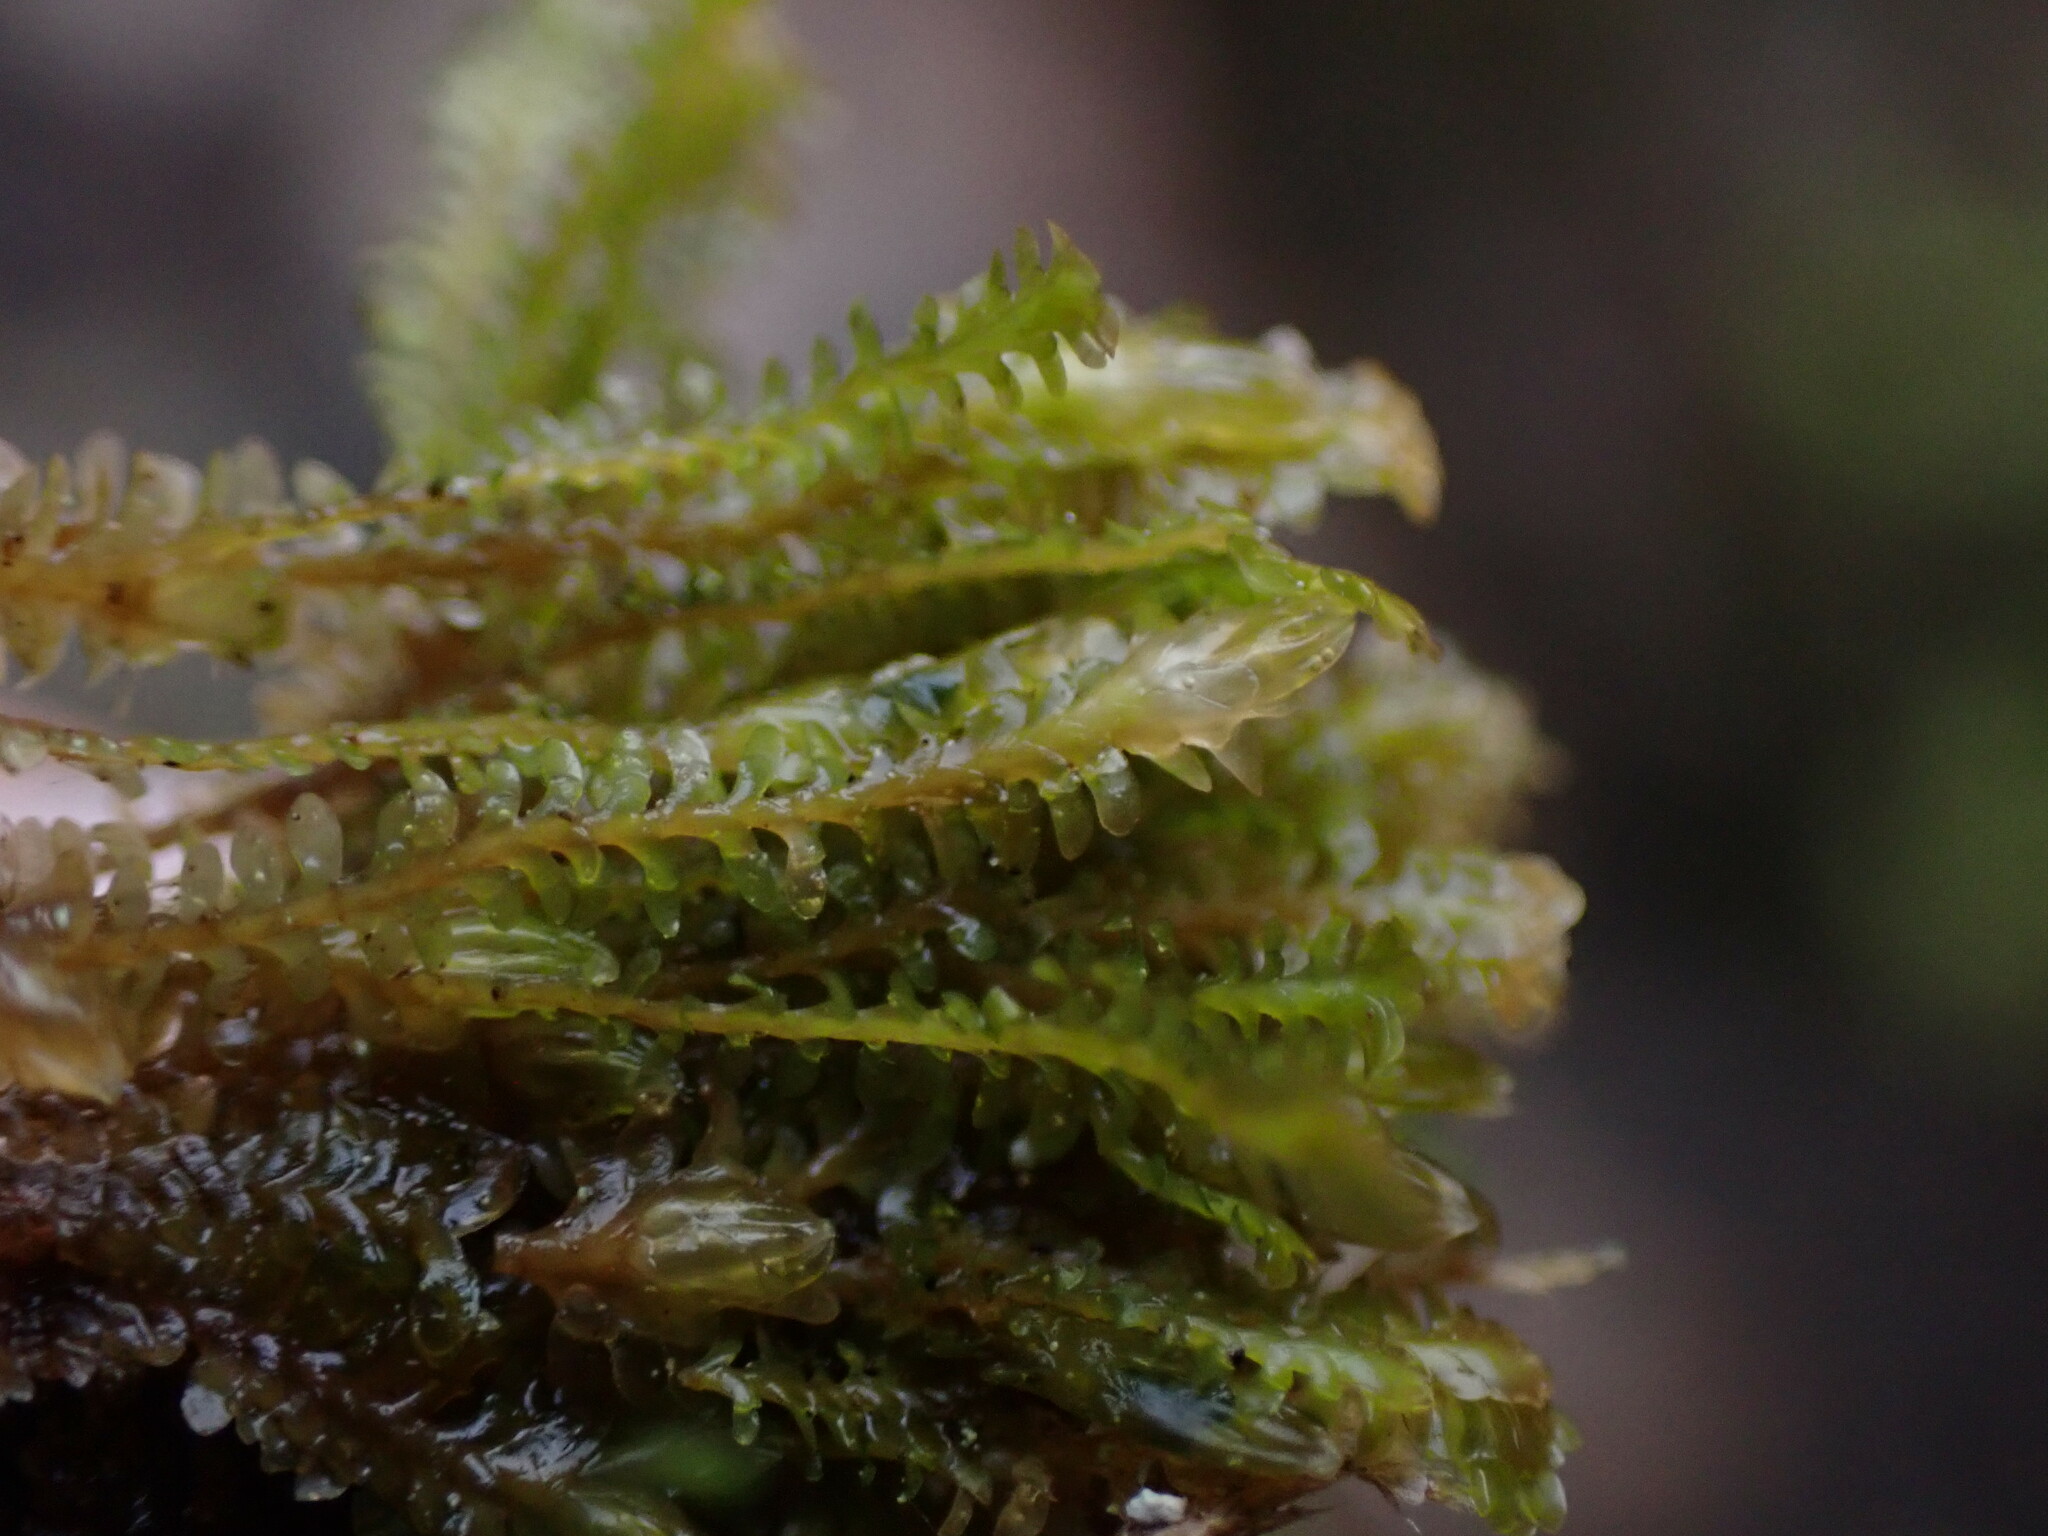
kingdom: Plantae
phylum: Marchantiophyta
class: Jungermanniopsida
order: Jungermanniales
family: Scapaniaceae
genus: Diplophyllum
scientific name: Diplophyllum taxifolium
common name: Alpine earwort
